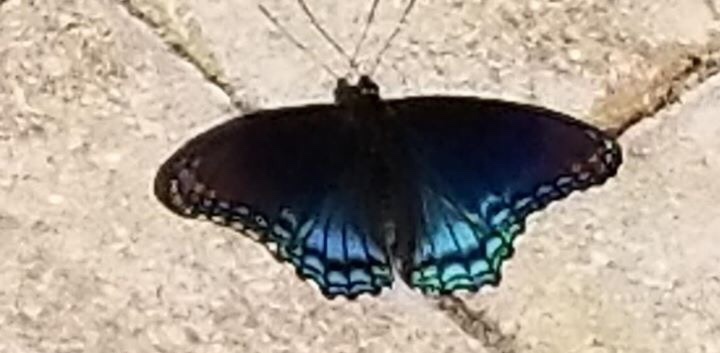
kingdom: Animalia
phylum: Arthropoda
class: Insecta
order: Lepidoptera
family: Nymphalidae
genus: Limenitis
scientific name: Limenitis astyanax
